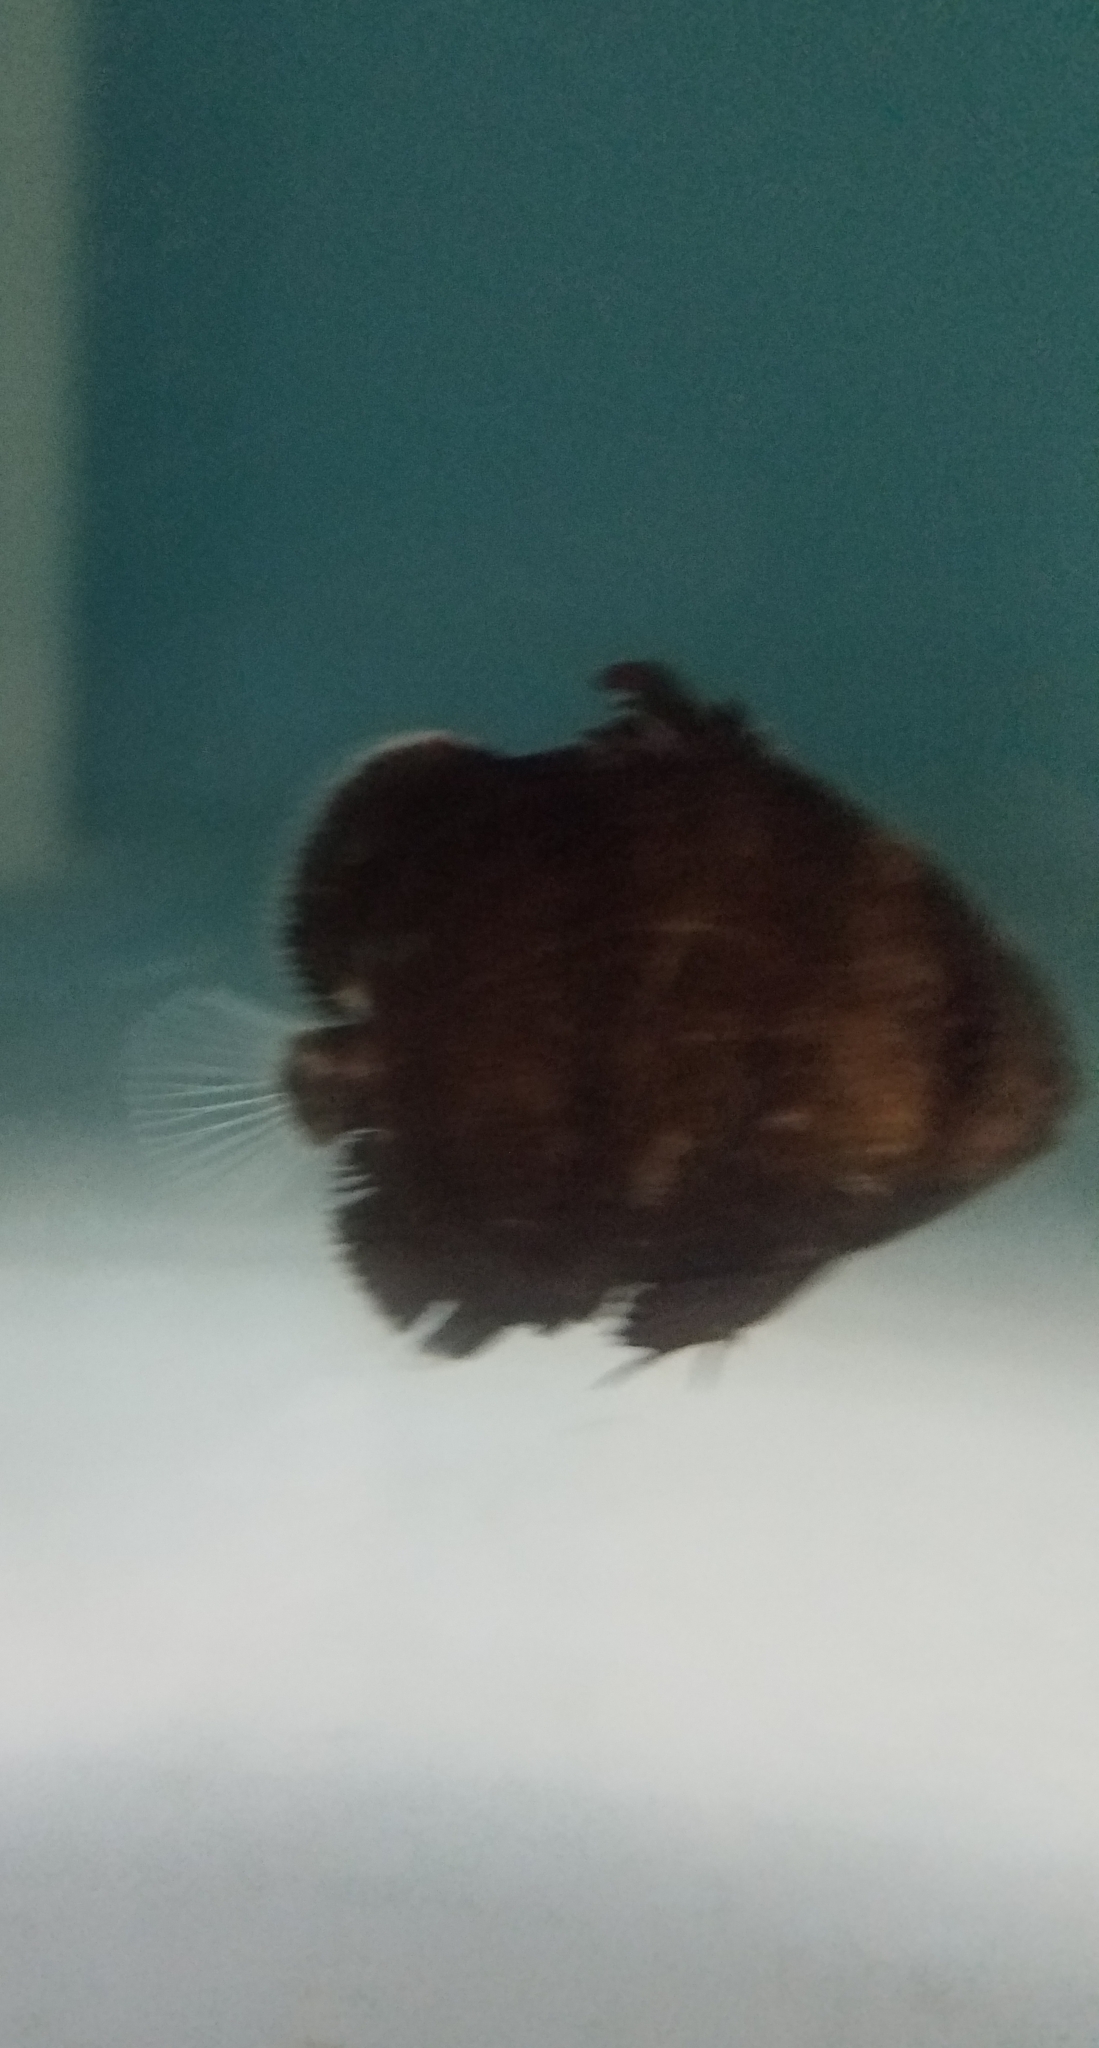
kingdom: Animalia
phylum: Chordata
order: Perciformes
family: Ephippidae
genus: Chaetodipterus
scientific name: Chaetodipterus faber
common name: Ocean cobbler
